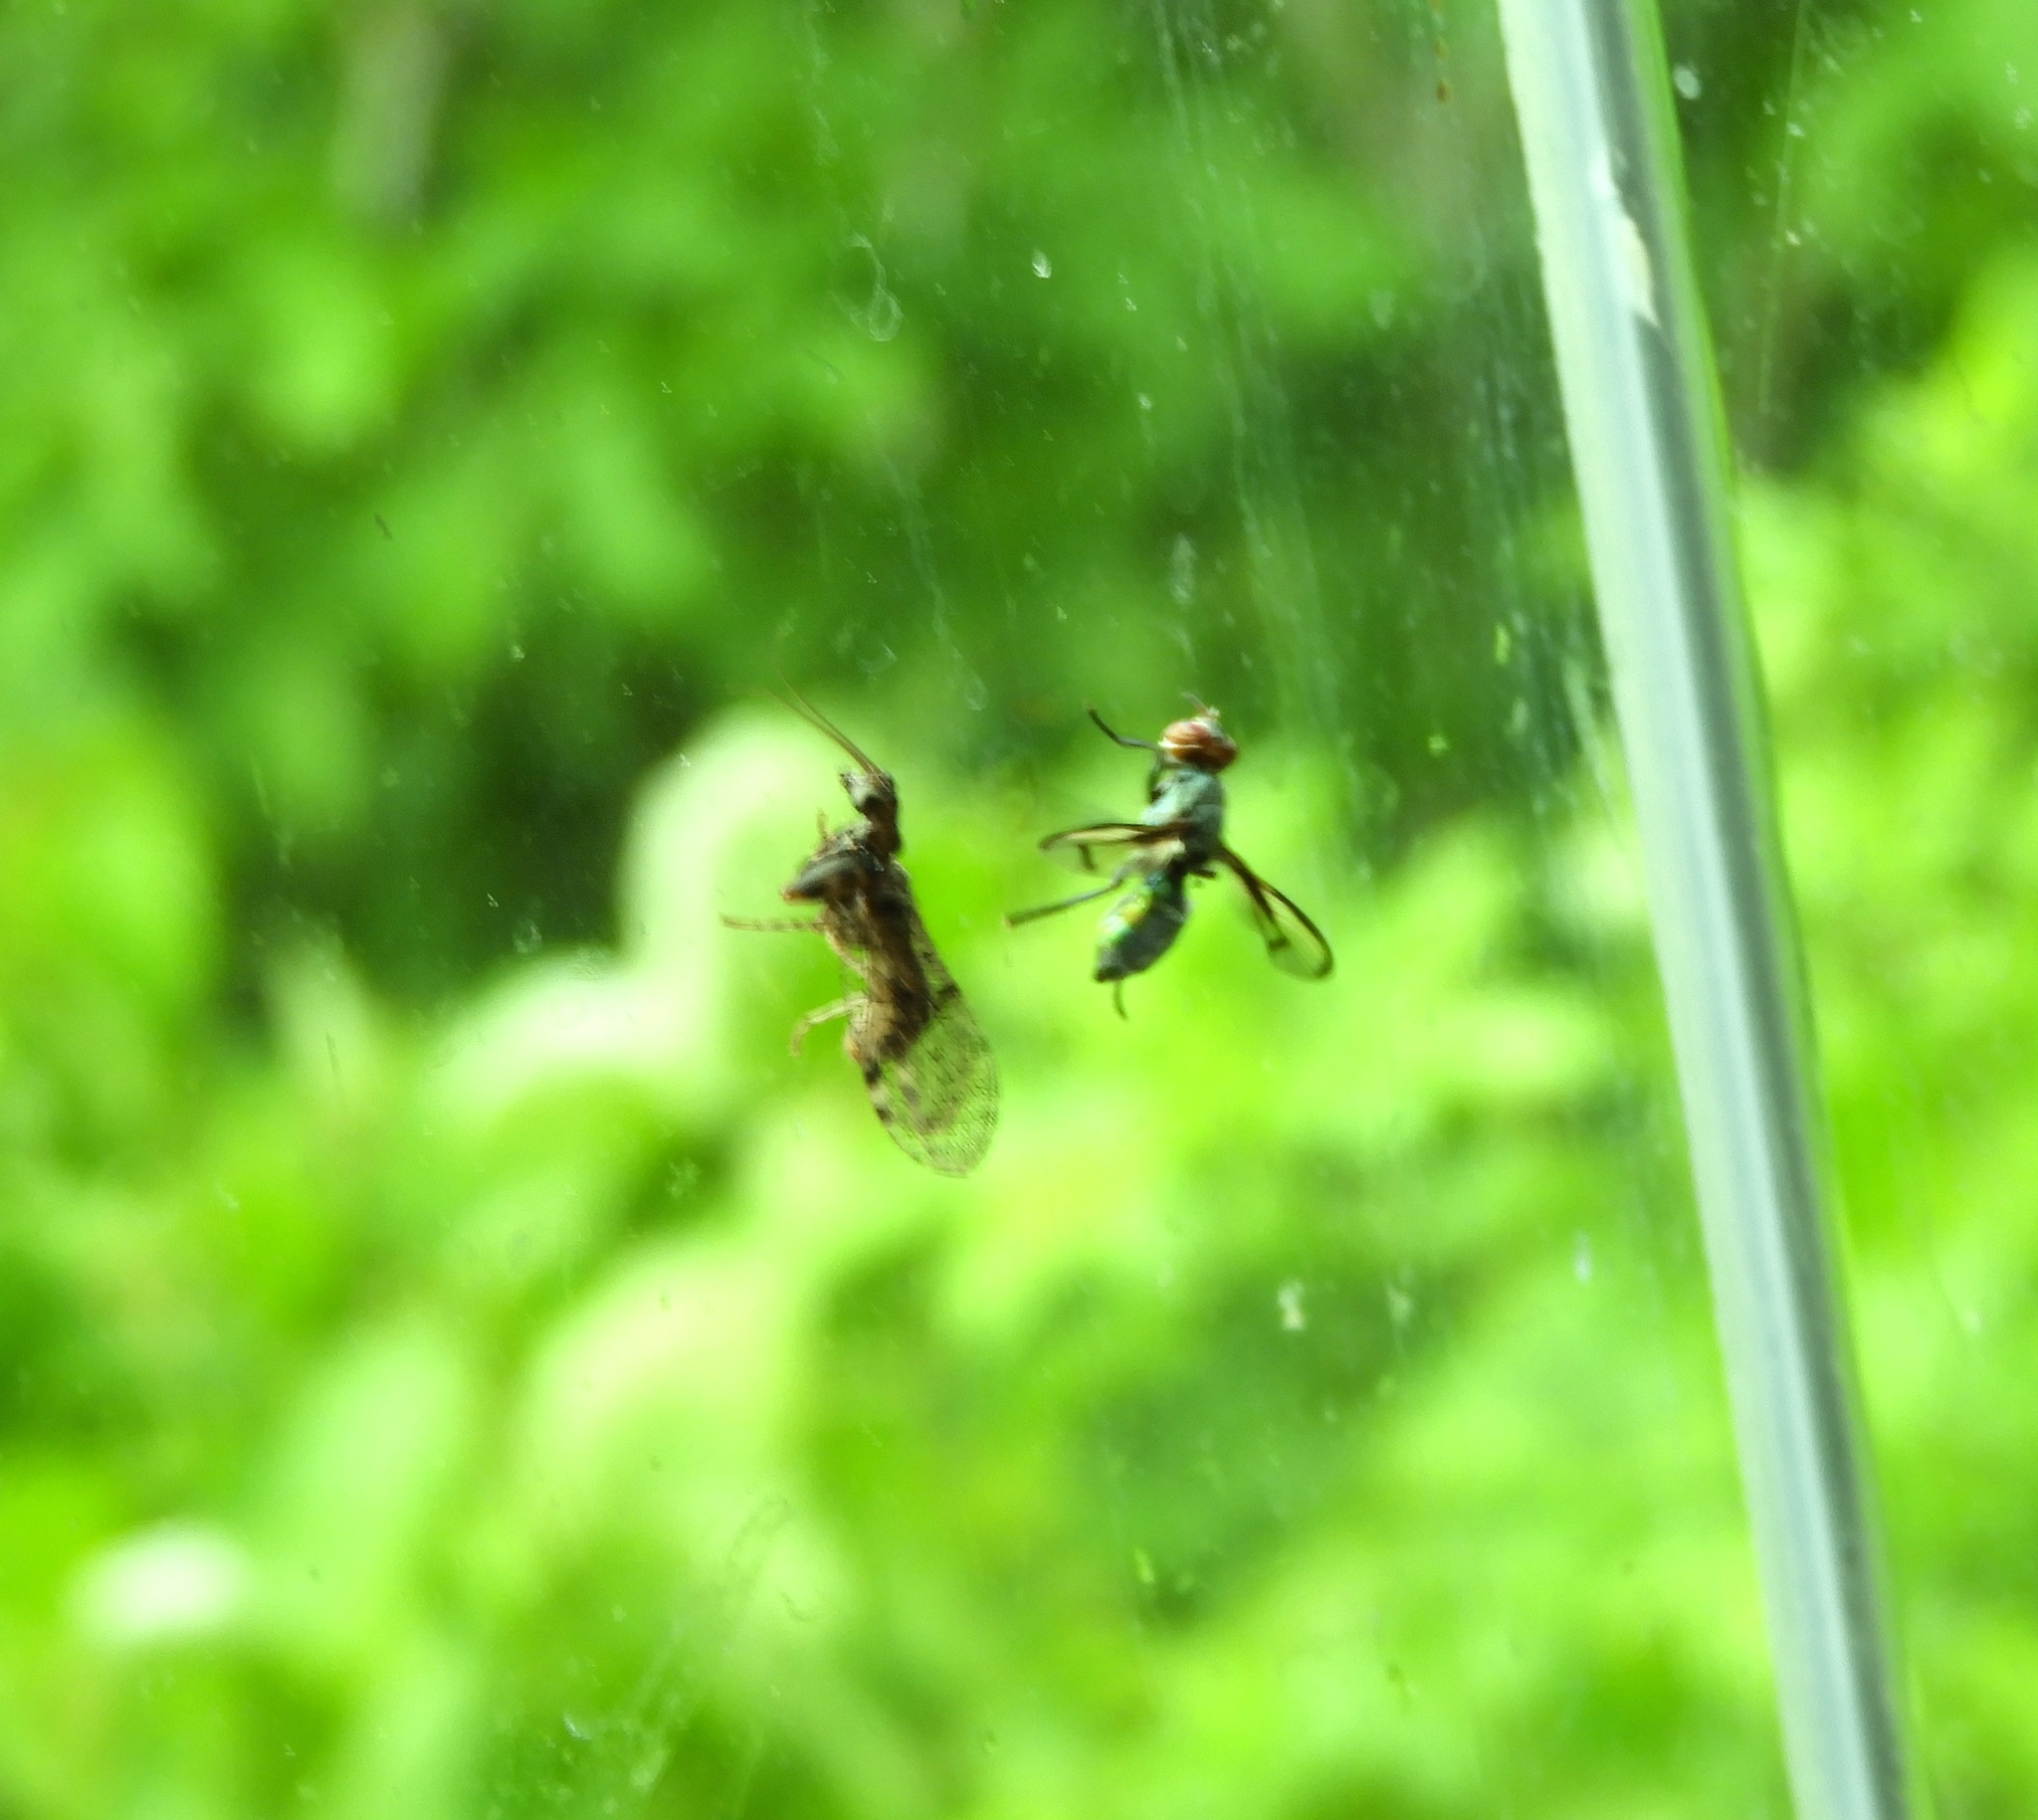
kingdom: Animalia
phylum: Arthropoda
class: Insecta
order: Diptera
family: Platystomatidae
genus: Senopterina
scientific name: Senopterina
